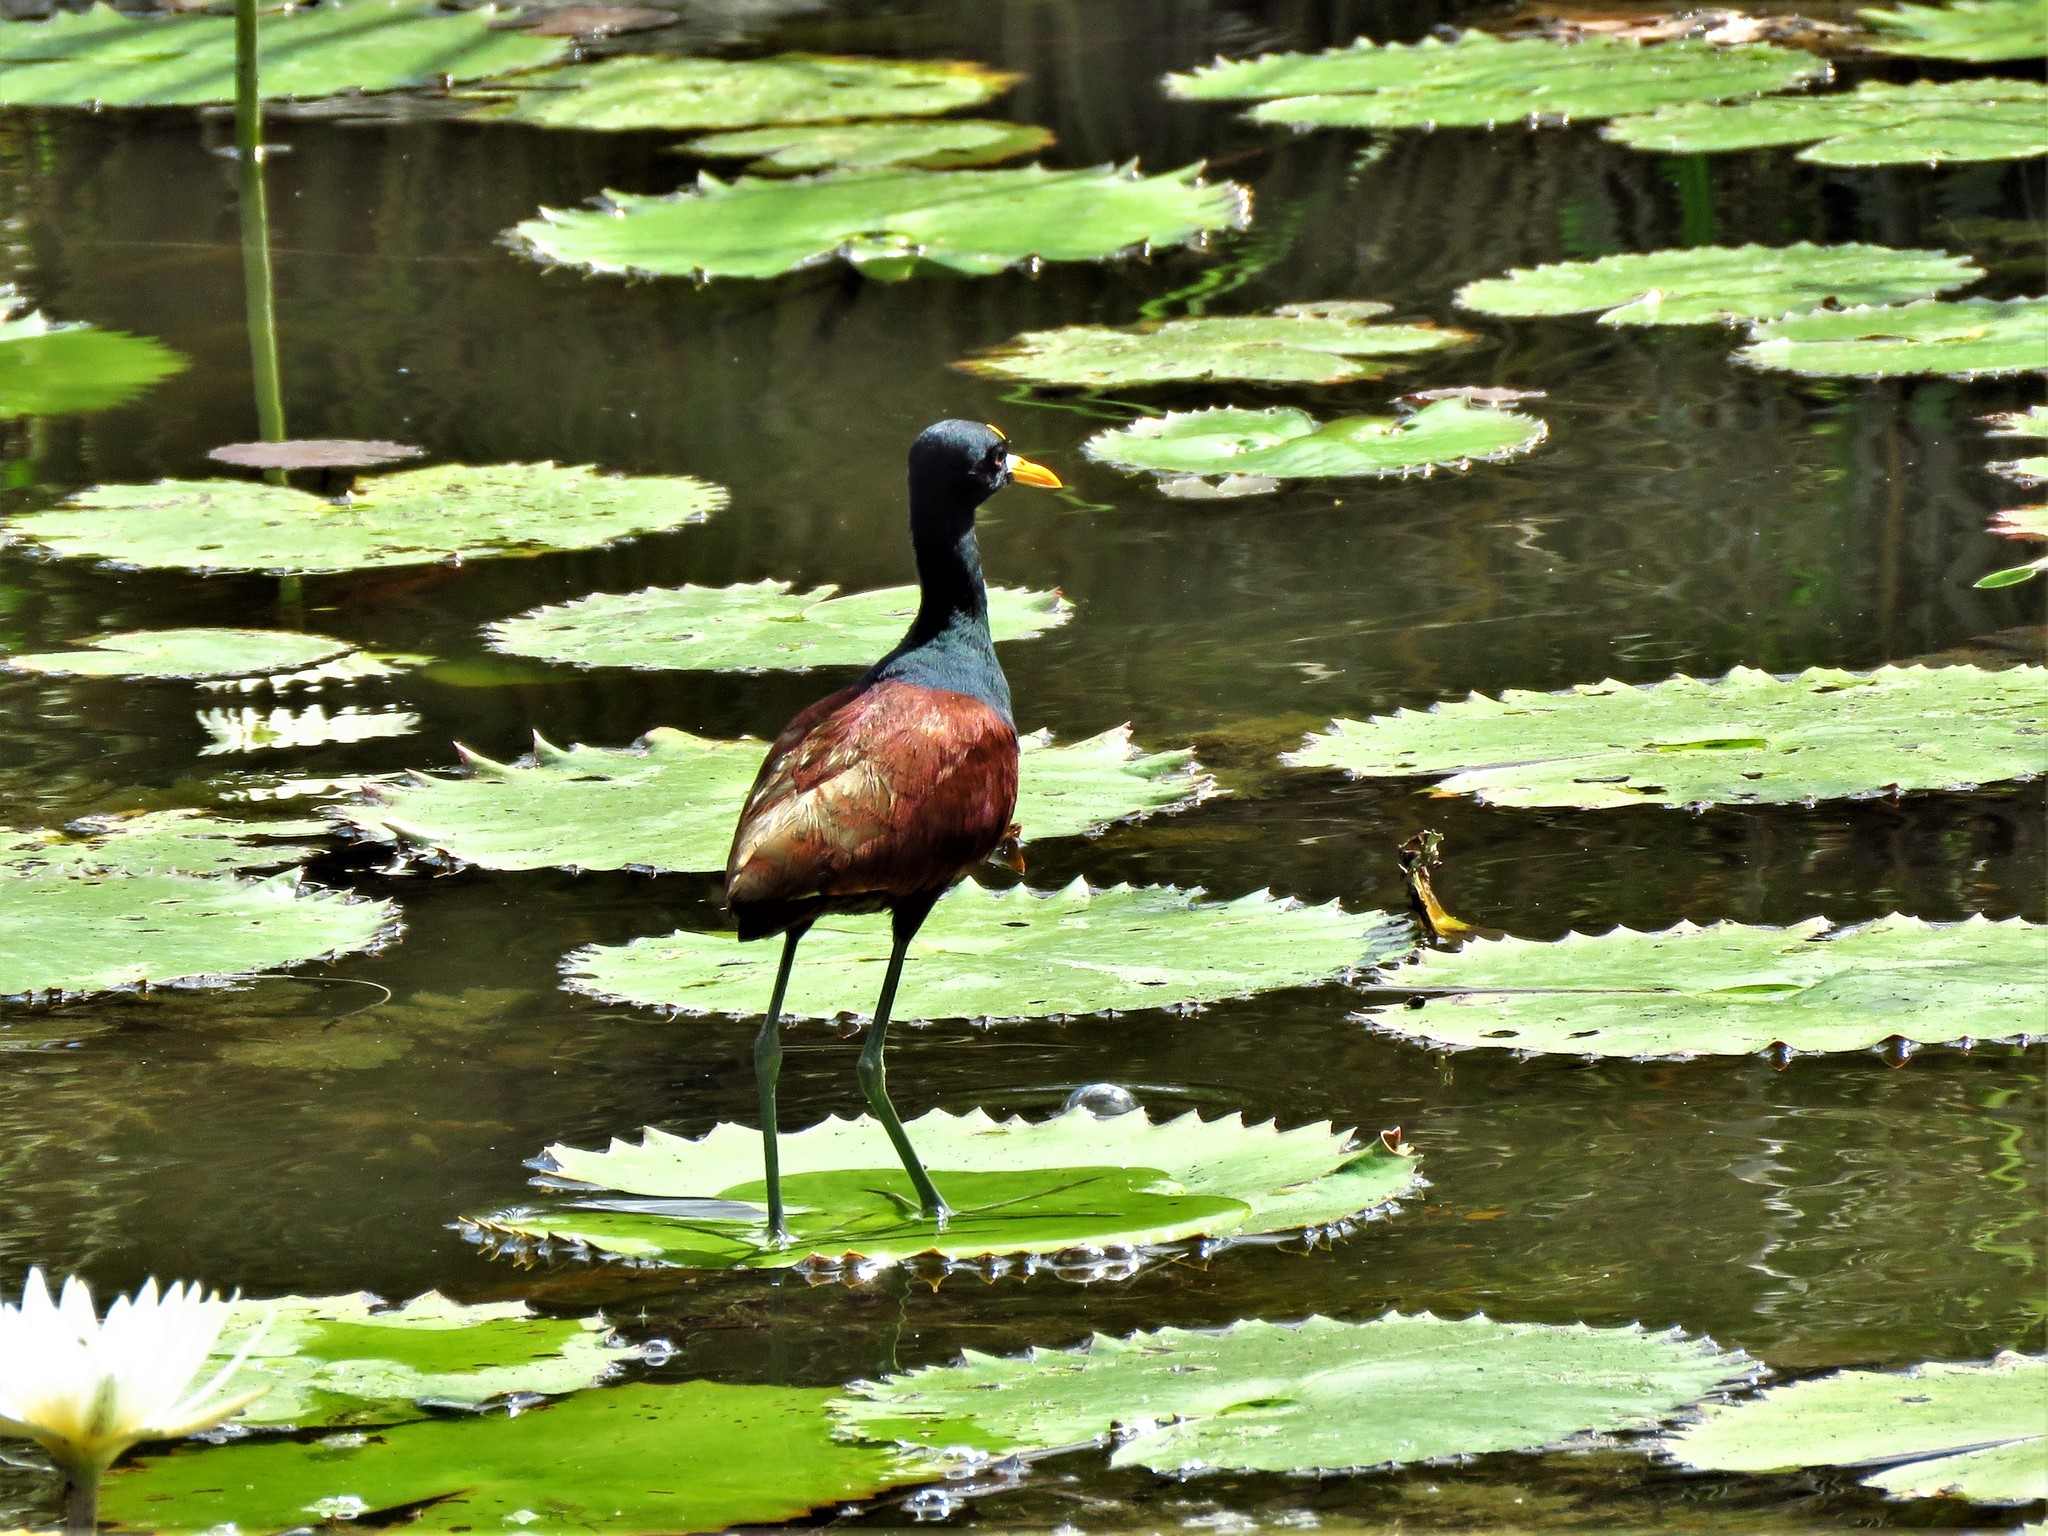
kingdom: Animalia
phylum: Chordata
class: Aves
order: Charadriiformes
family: Jacanidae
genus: Jacana
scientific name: Jacana spinosa
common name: Northern jacana
